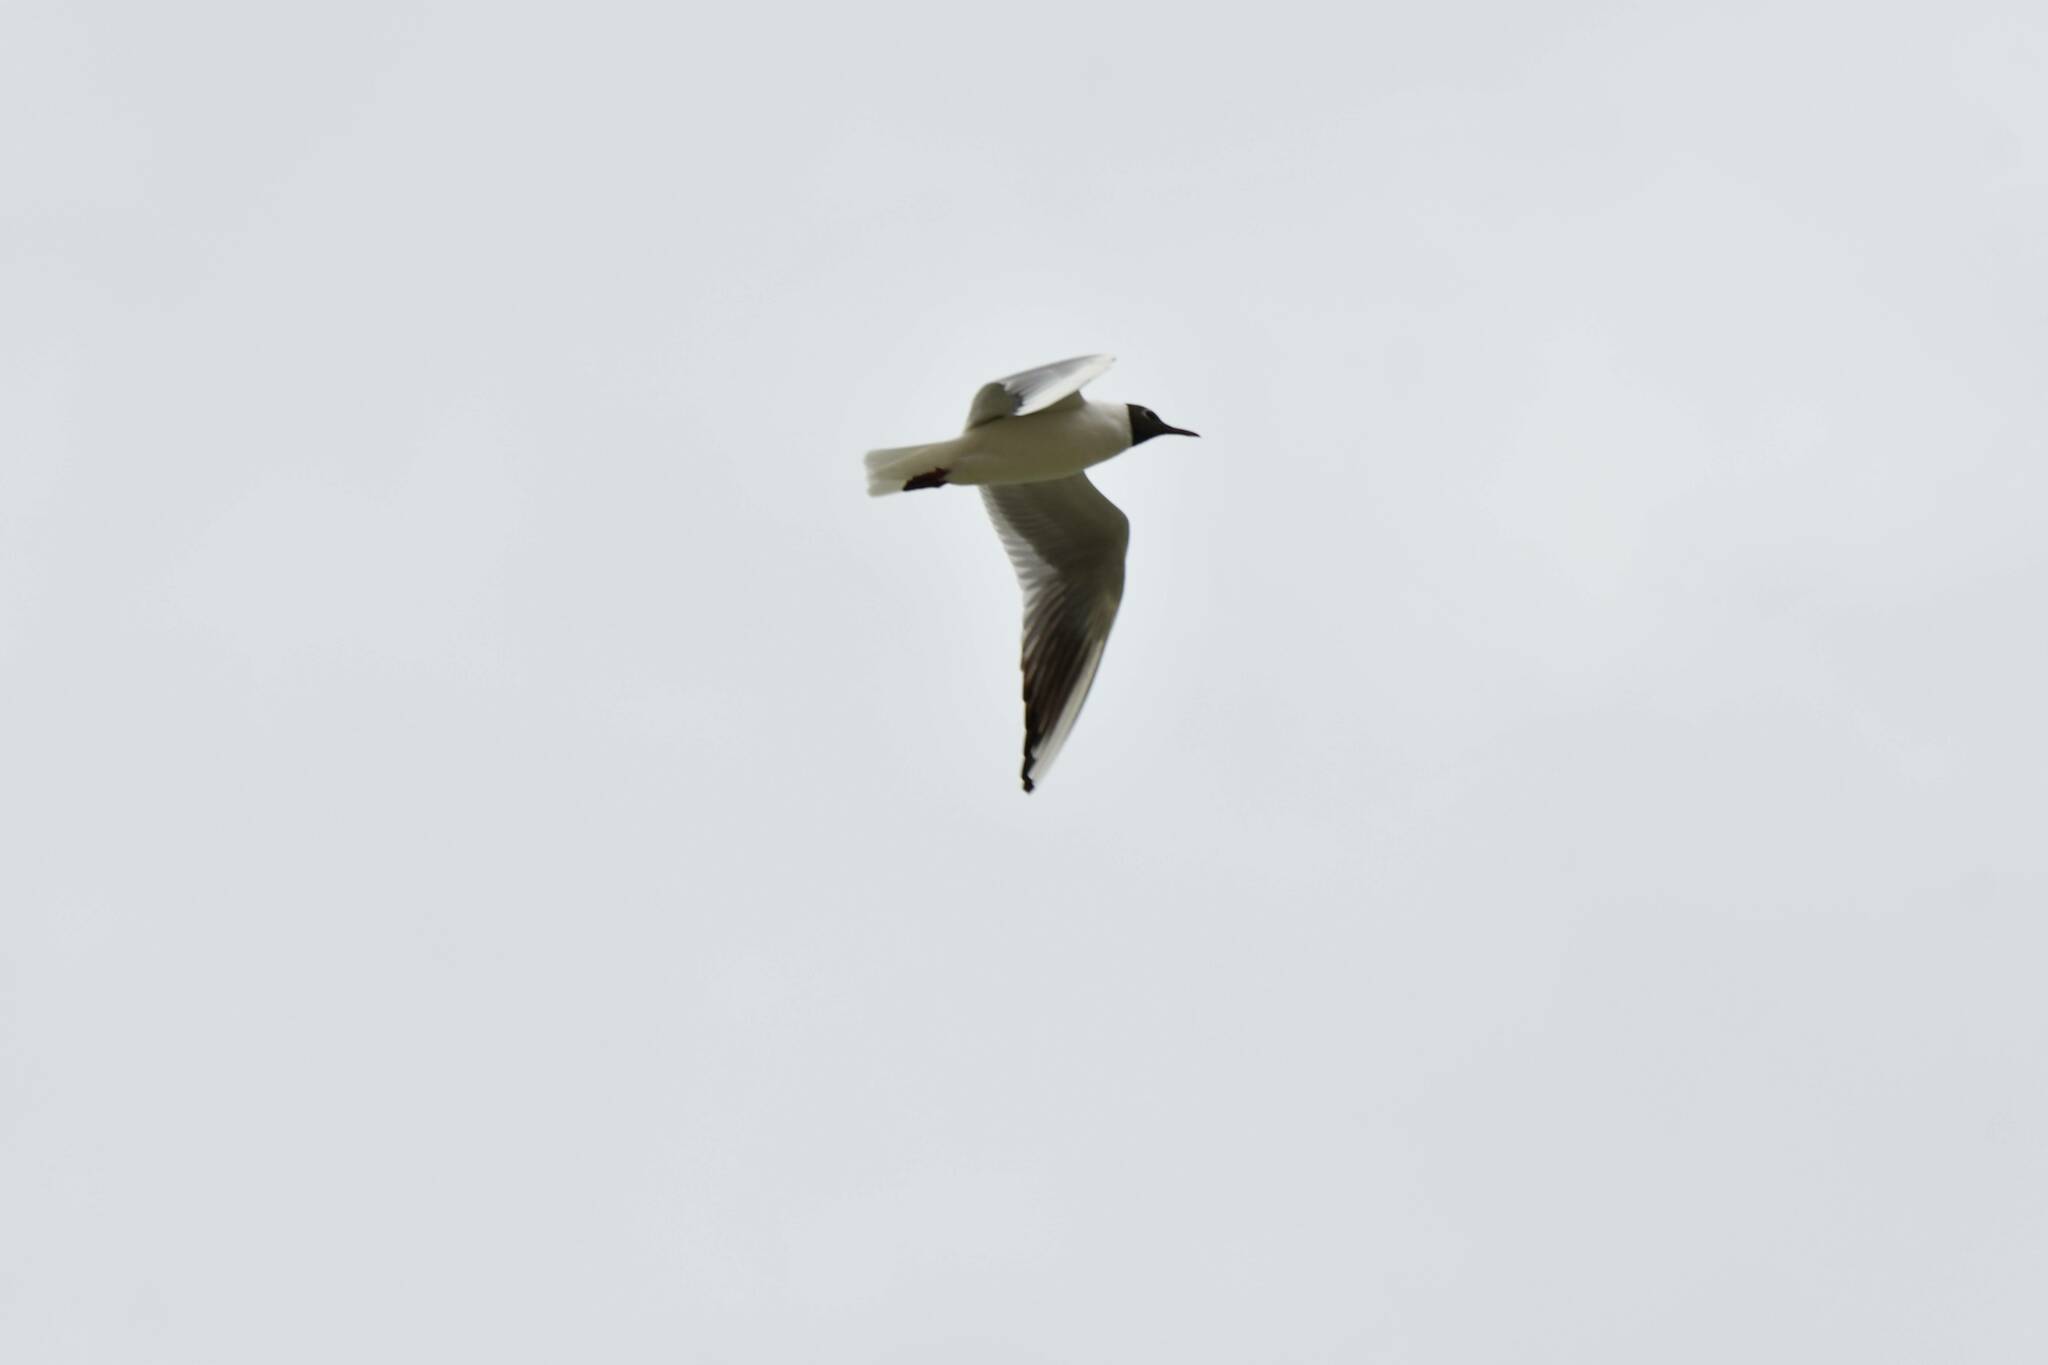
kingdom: Animalia
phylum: Chordata
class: Aves
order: Charadriiformes
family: Laridae
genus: Chroicocephalus
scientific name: Chroicocephalus ridibundus
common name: Black-headed gull
